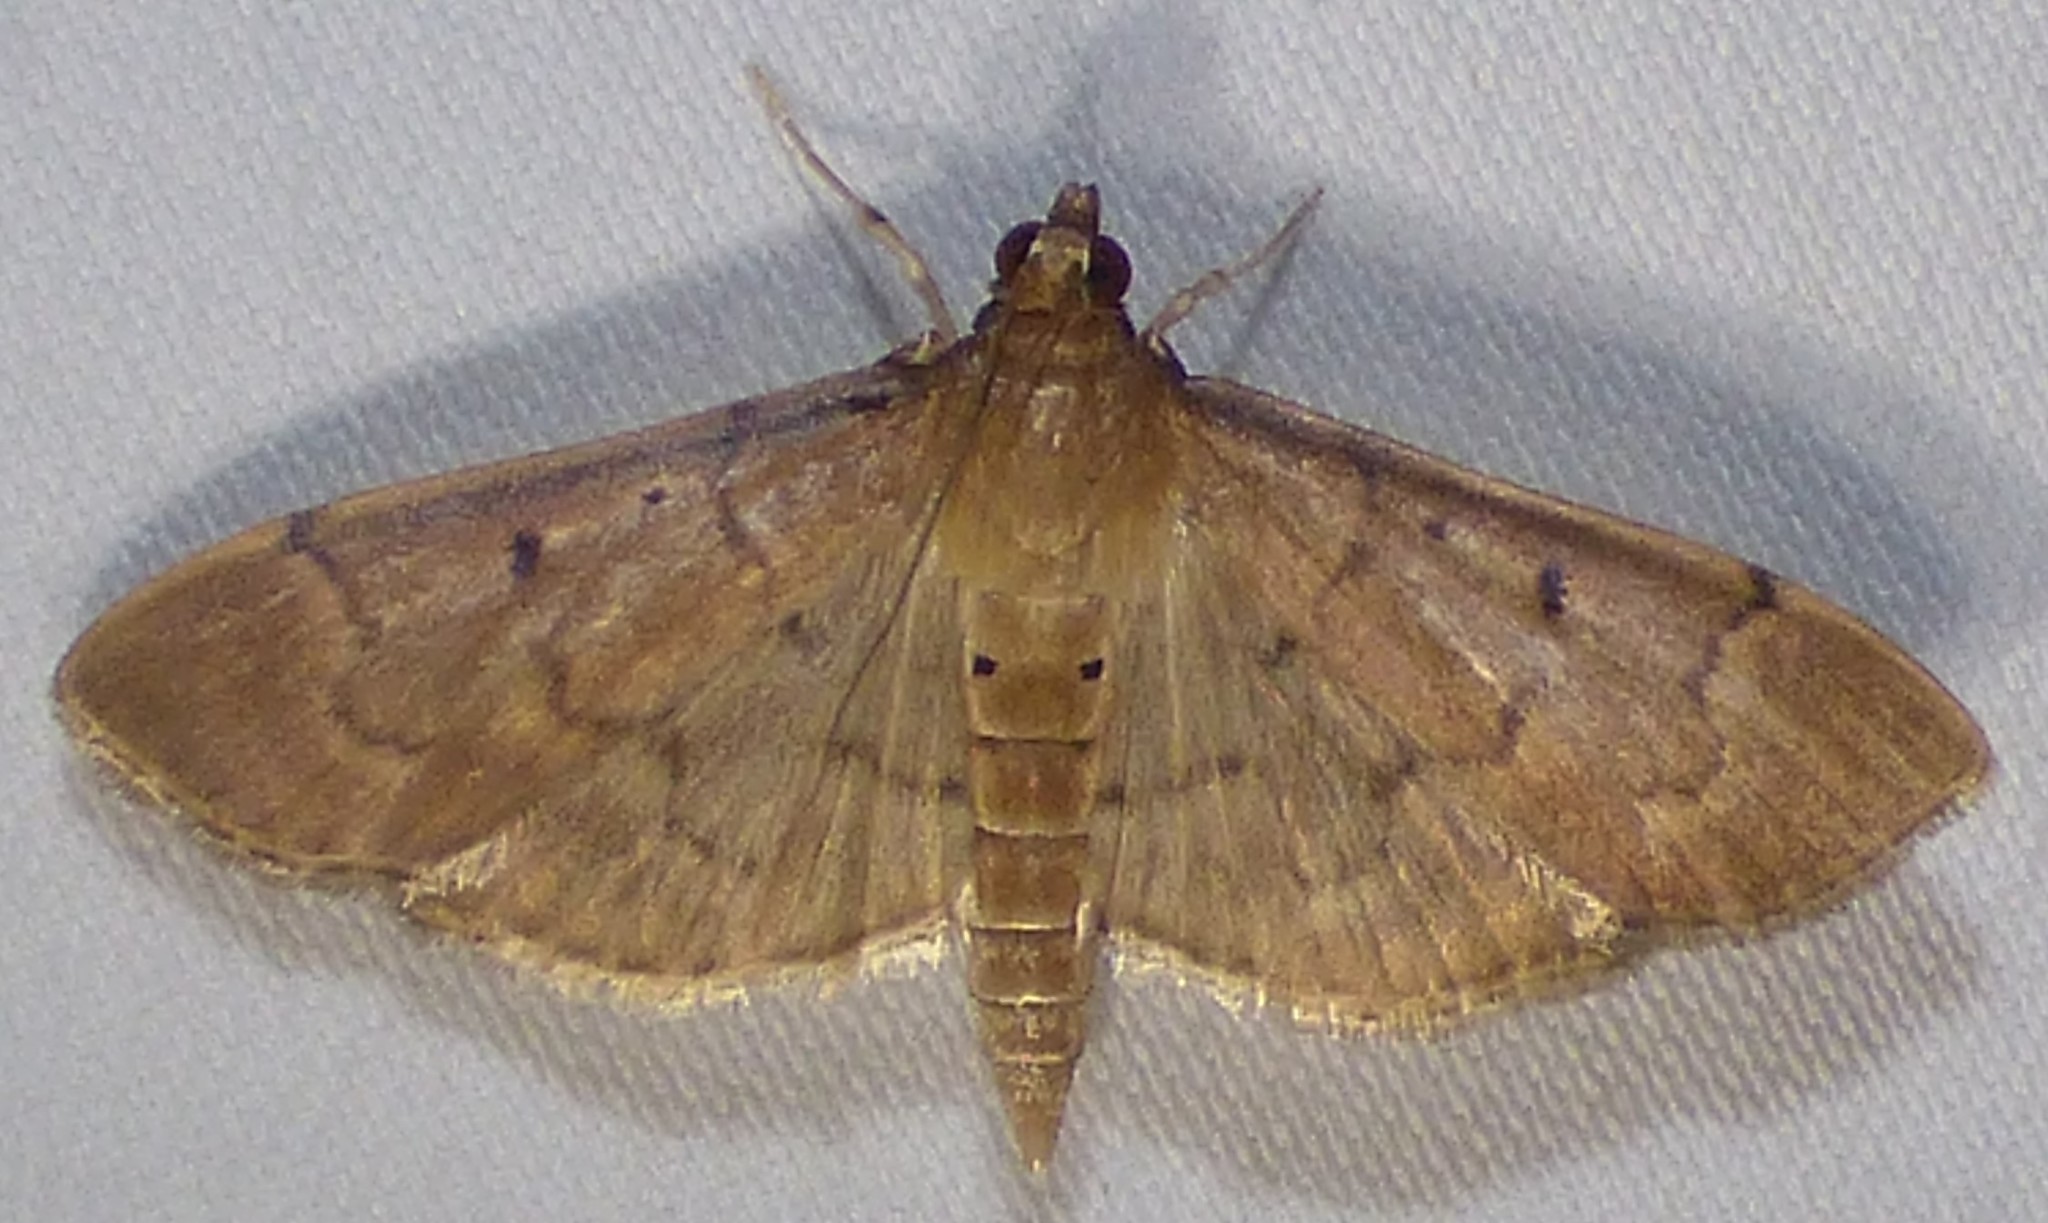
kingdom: Animalia
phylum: Arthropoda
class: Insecta
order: Lepidoptera
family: Crambidae
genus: Herpetogramma
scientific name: Herpetogramma bipunctalis
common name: Southern beet webworm
